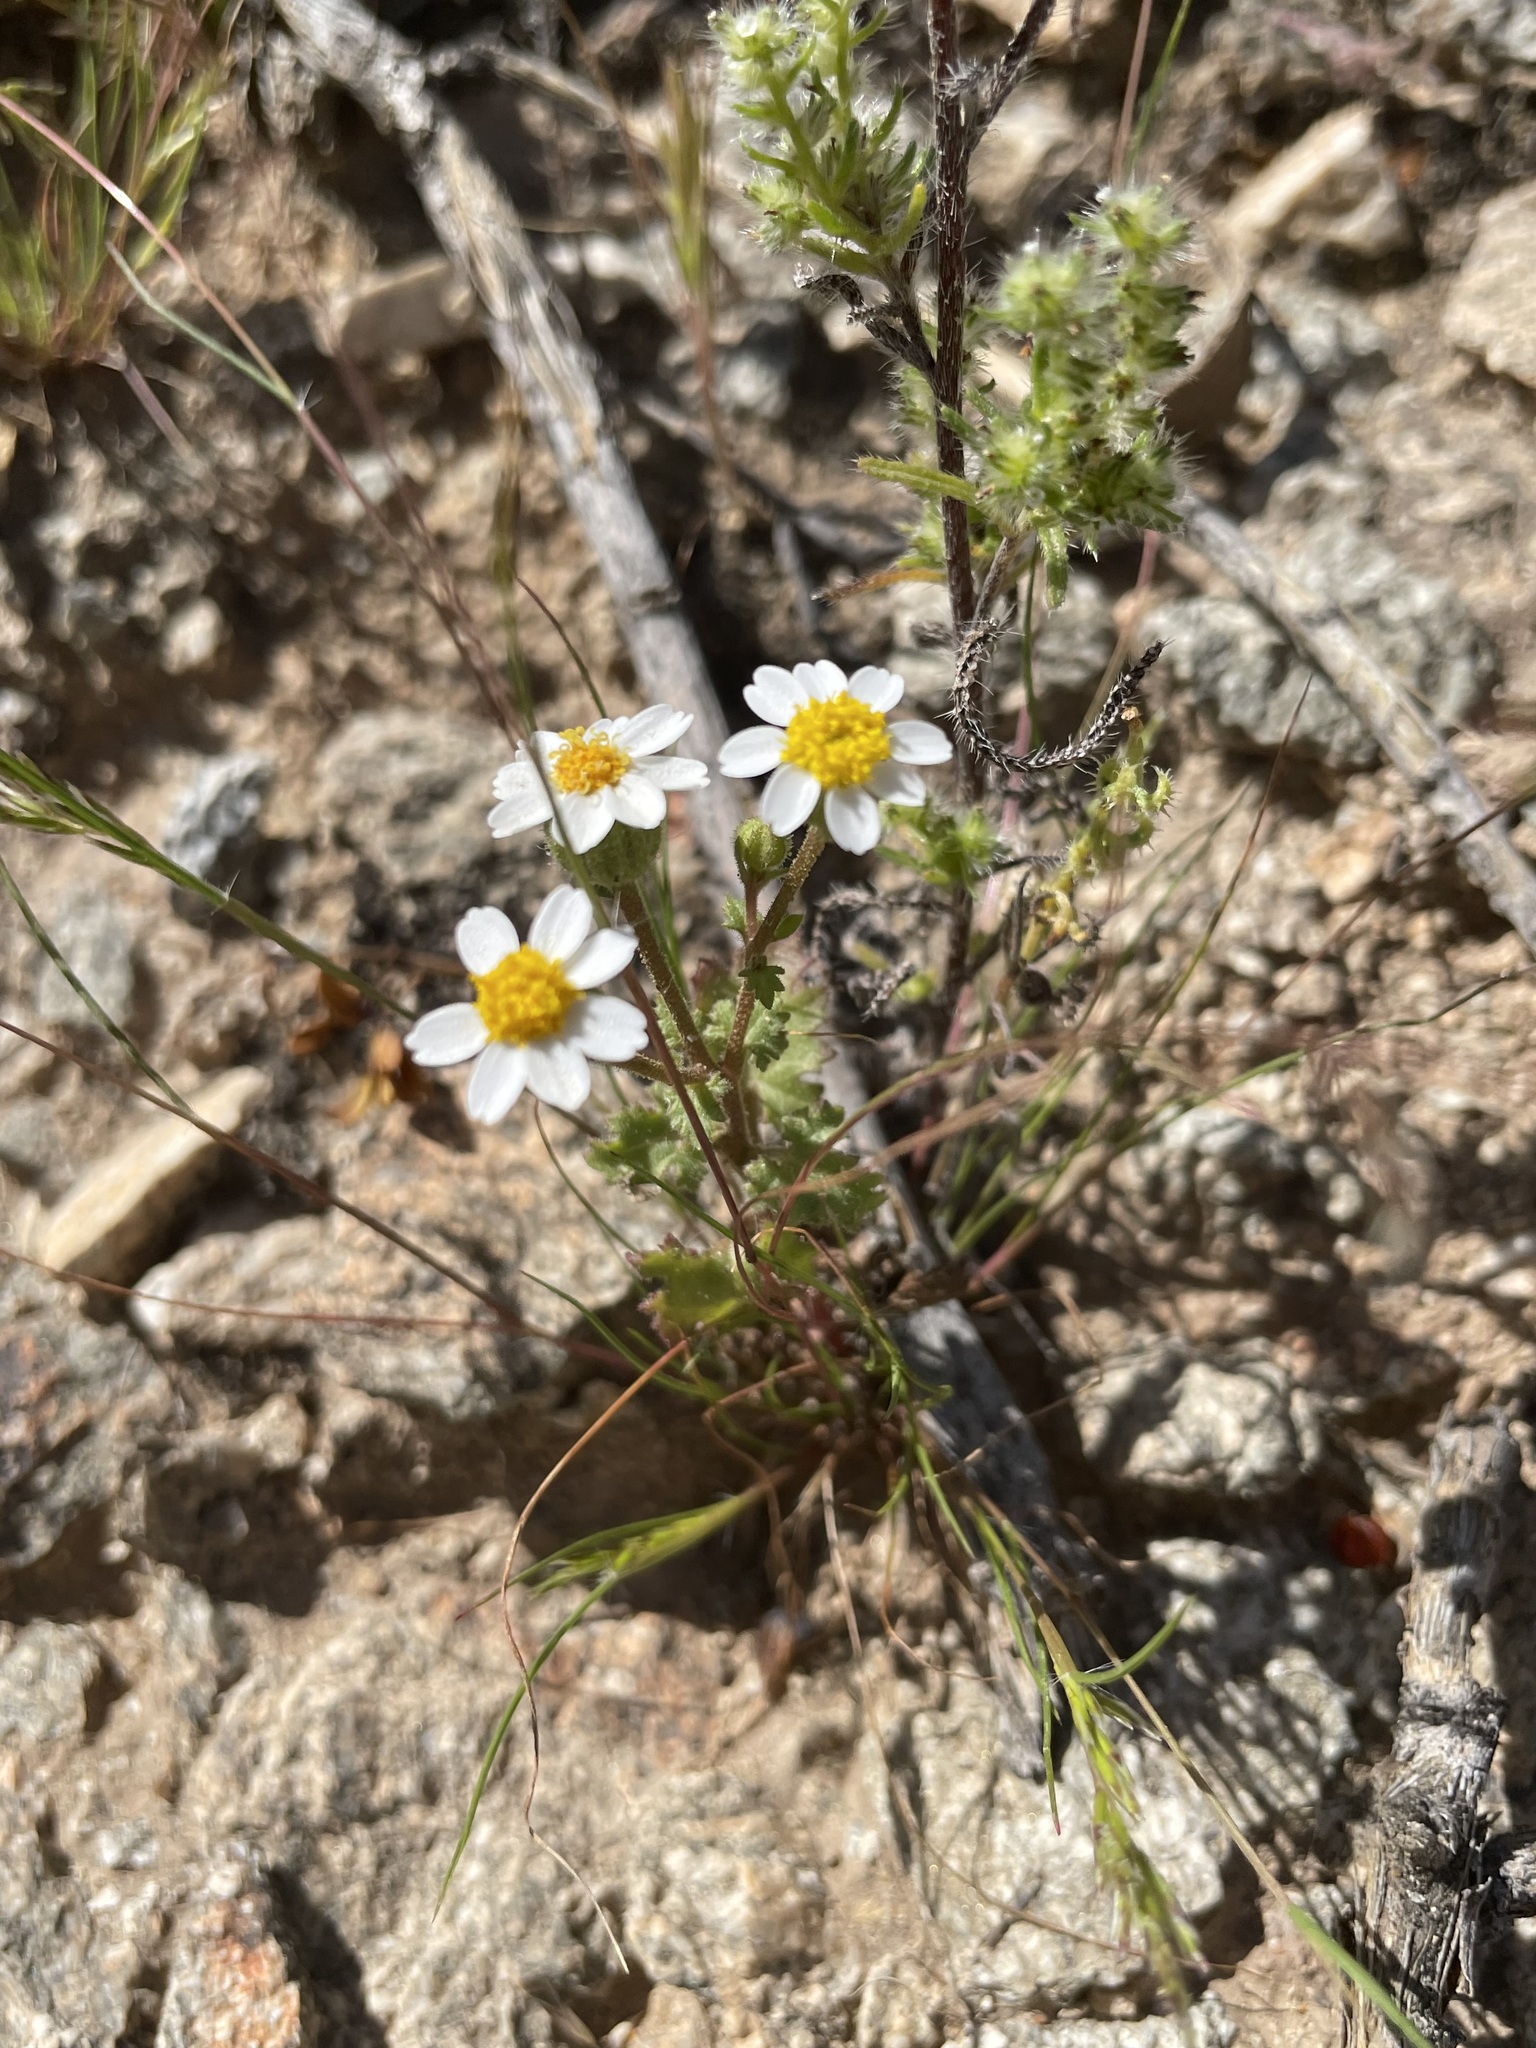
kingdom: Plantae
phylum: Tracheophyta
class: Magnoliopsida
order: Asterales
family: Asteraceae
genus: Laphamia
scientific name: Laphamia emoryi
